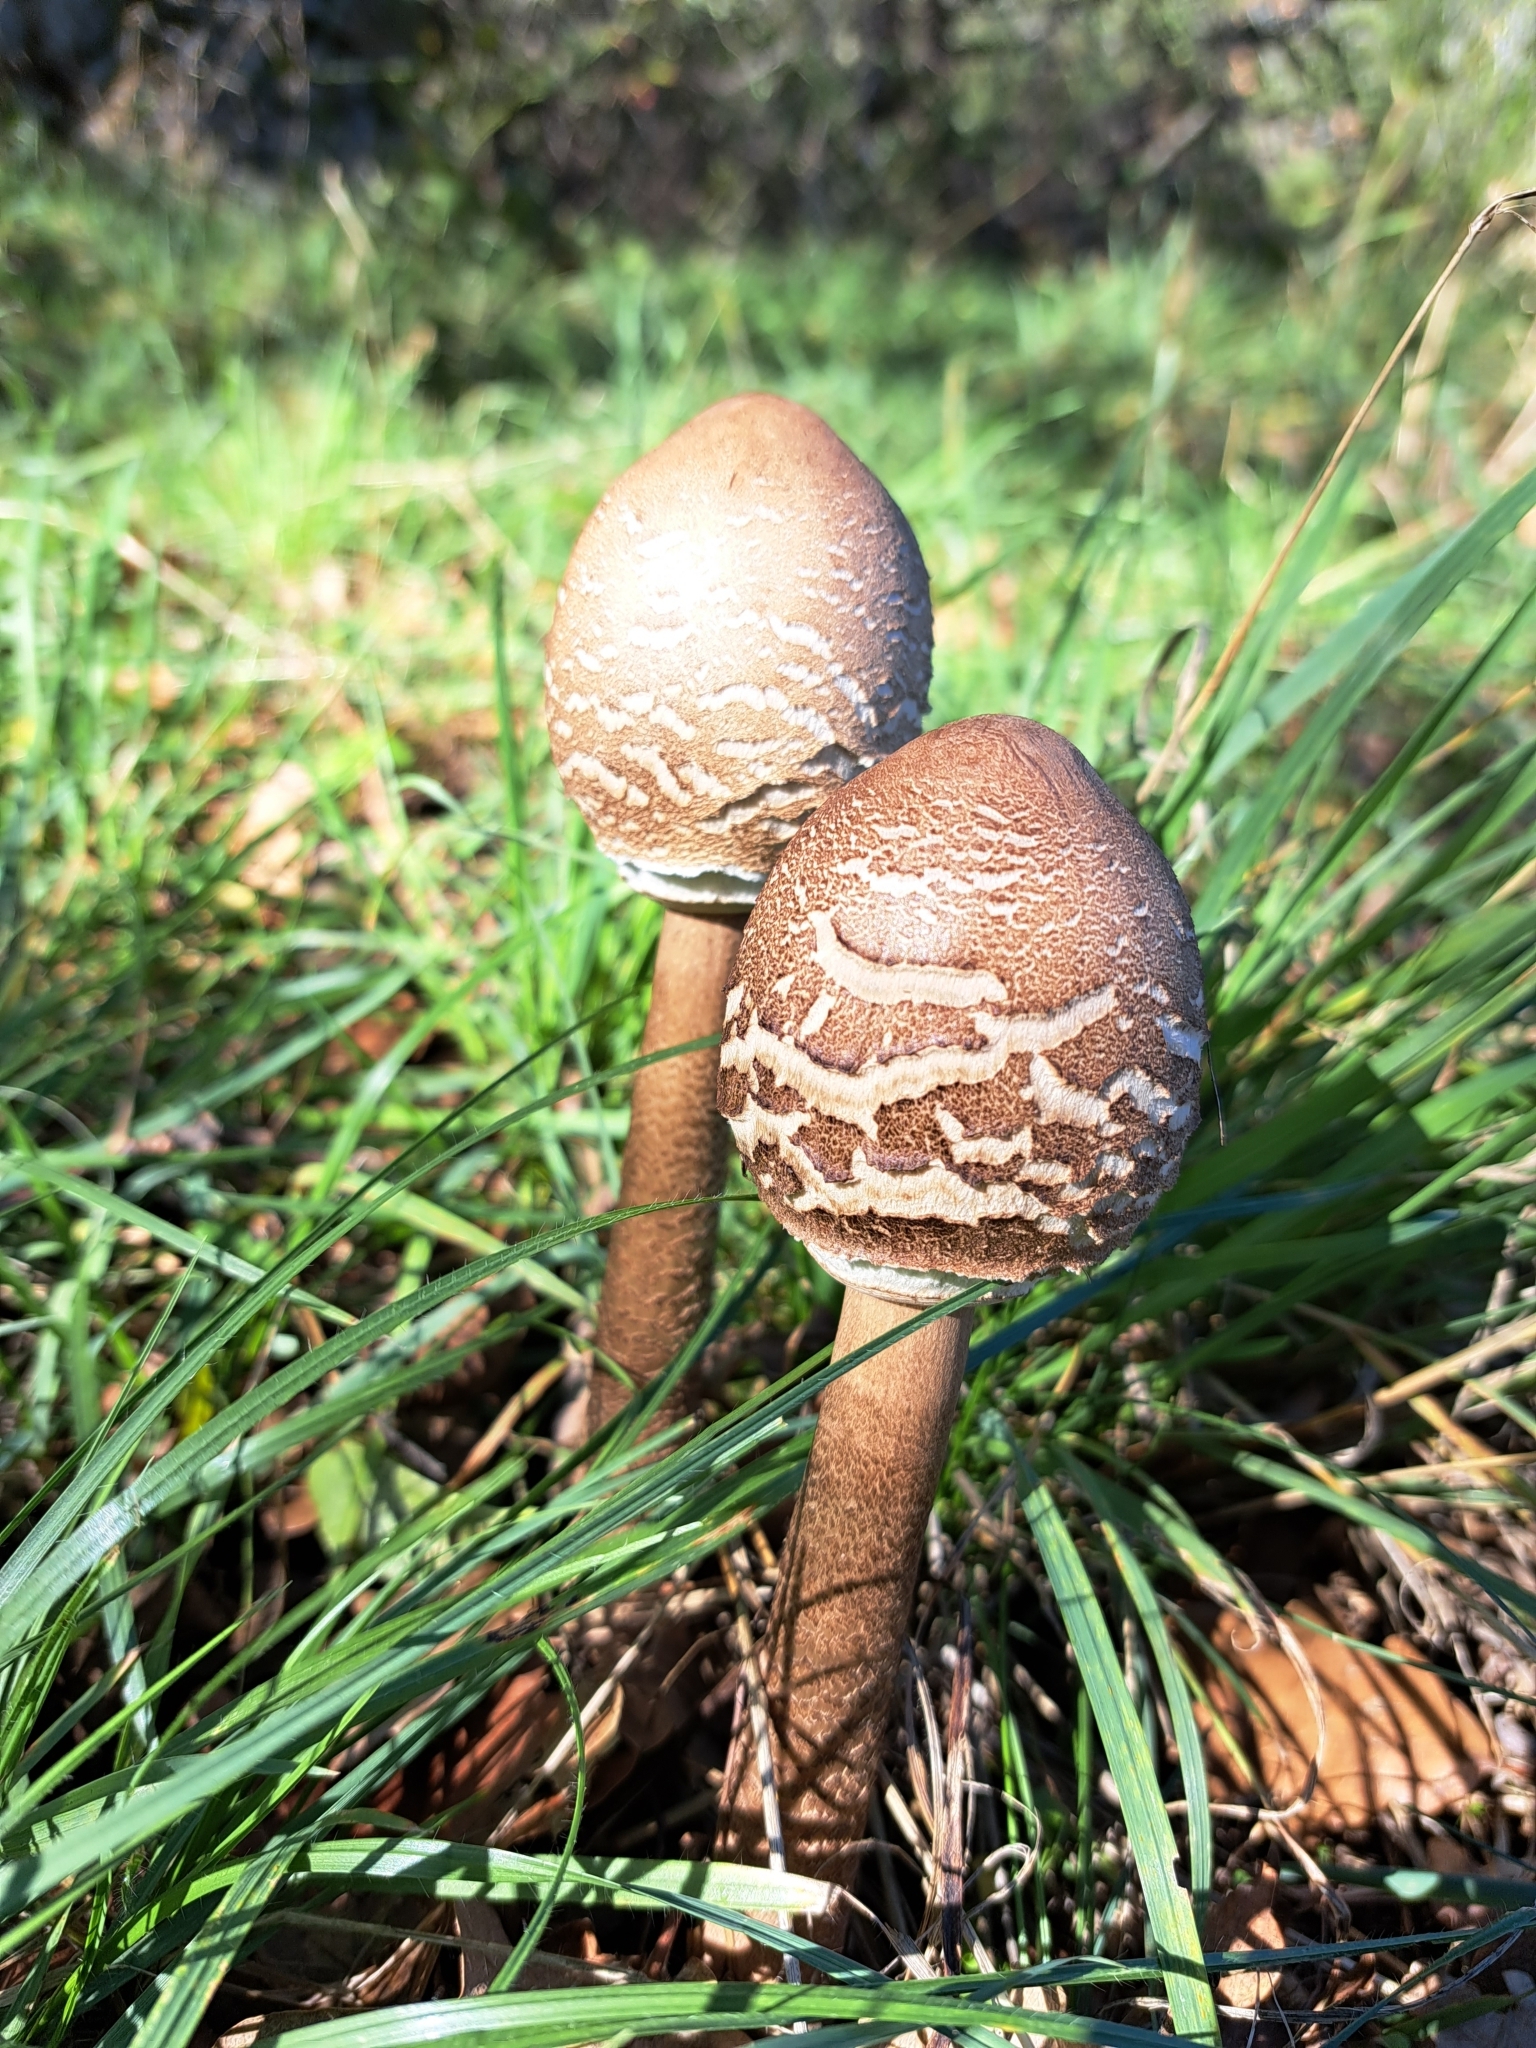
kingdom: Fungi
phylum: Basidiomycota
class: Agaricomycetes
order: Agaricales
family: Agaricaceae
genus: Macrolepiota
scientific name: Macrolepiota procera
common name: Parasol
